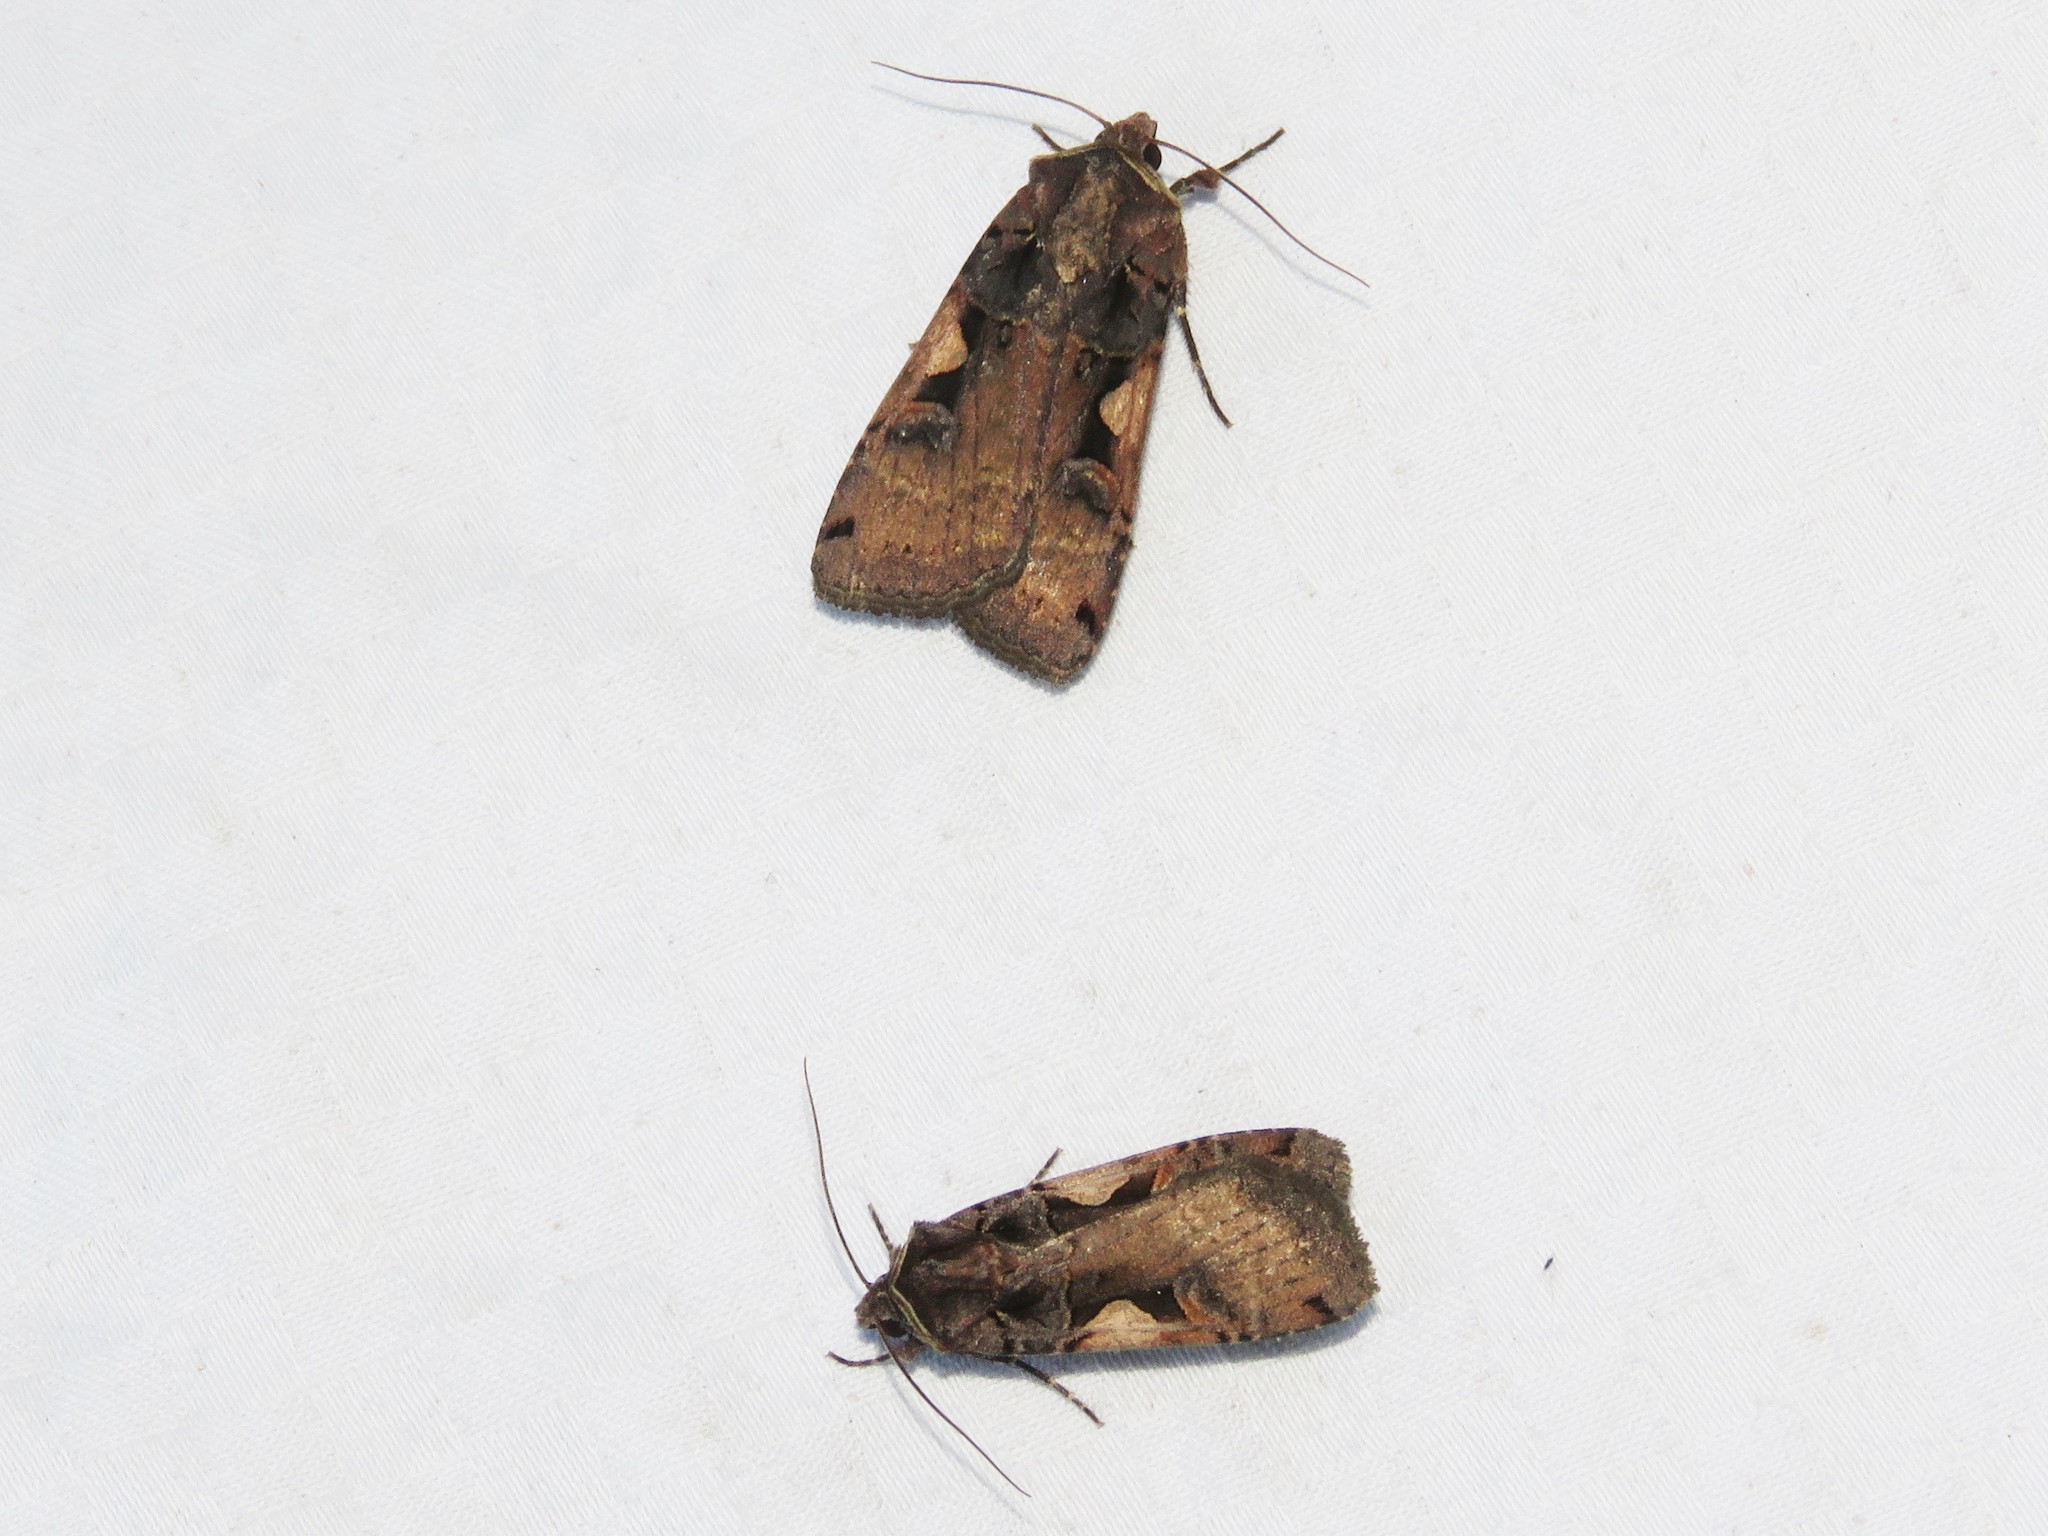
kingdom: Animalia
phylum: Arthropoda
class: Insecta
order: Lepidoptera
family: Noctuidae
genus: Xestia
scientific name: Xestia
